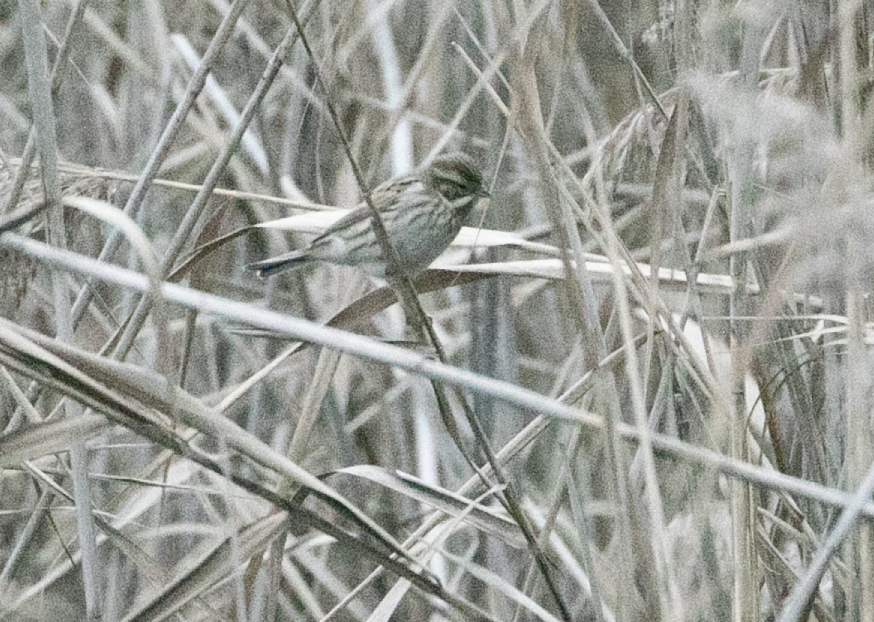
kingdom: Animalia
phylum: Chordata
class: Aves
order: Passeriformes
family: Emberizidae
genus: Emberiza
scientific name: Emberiza schoeniclus
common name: Reed bunting
